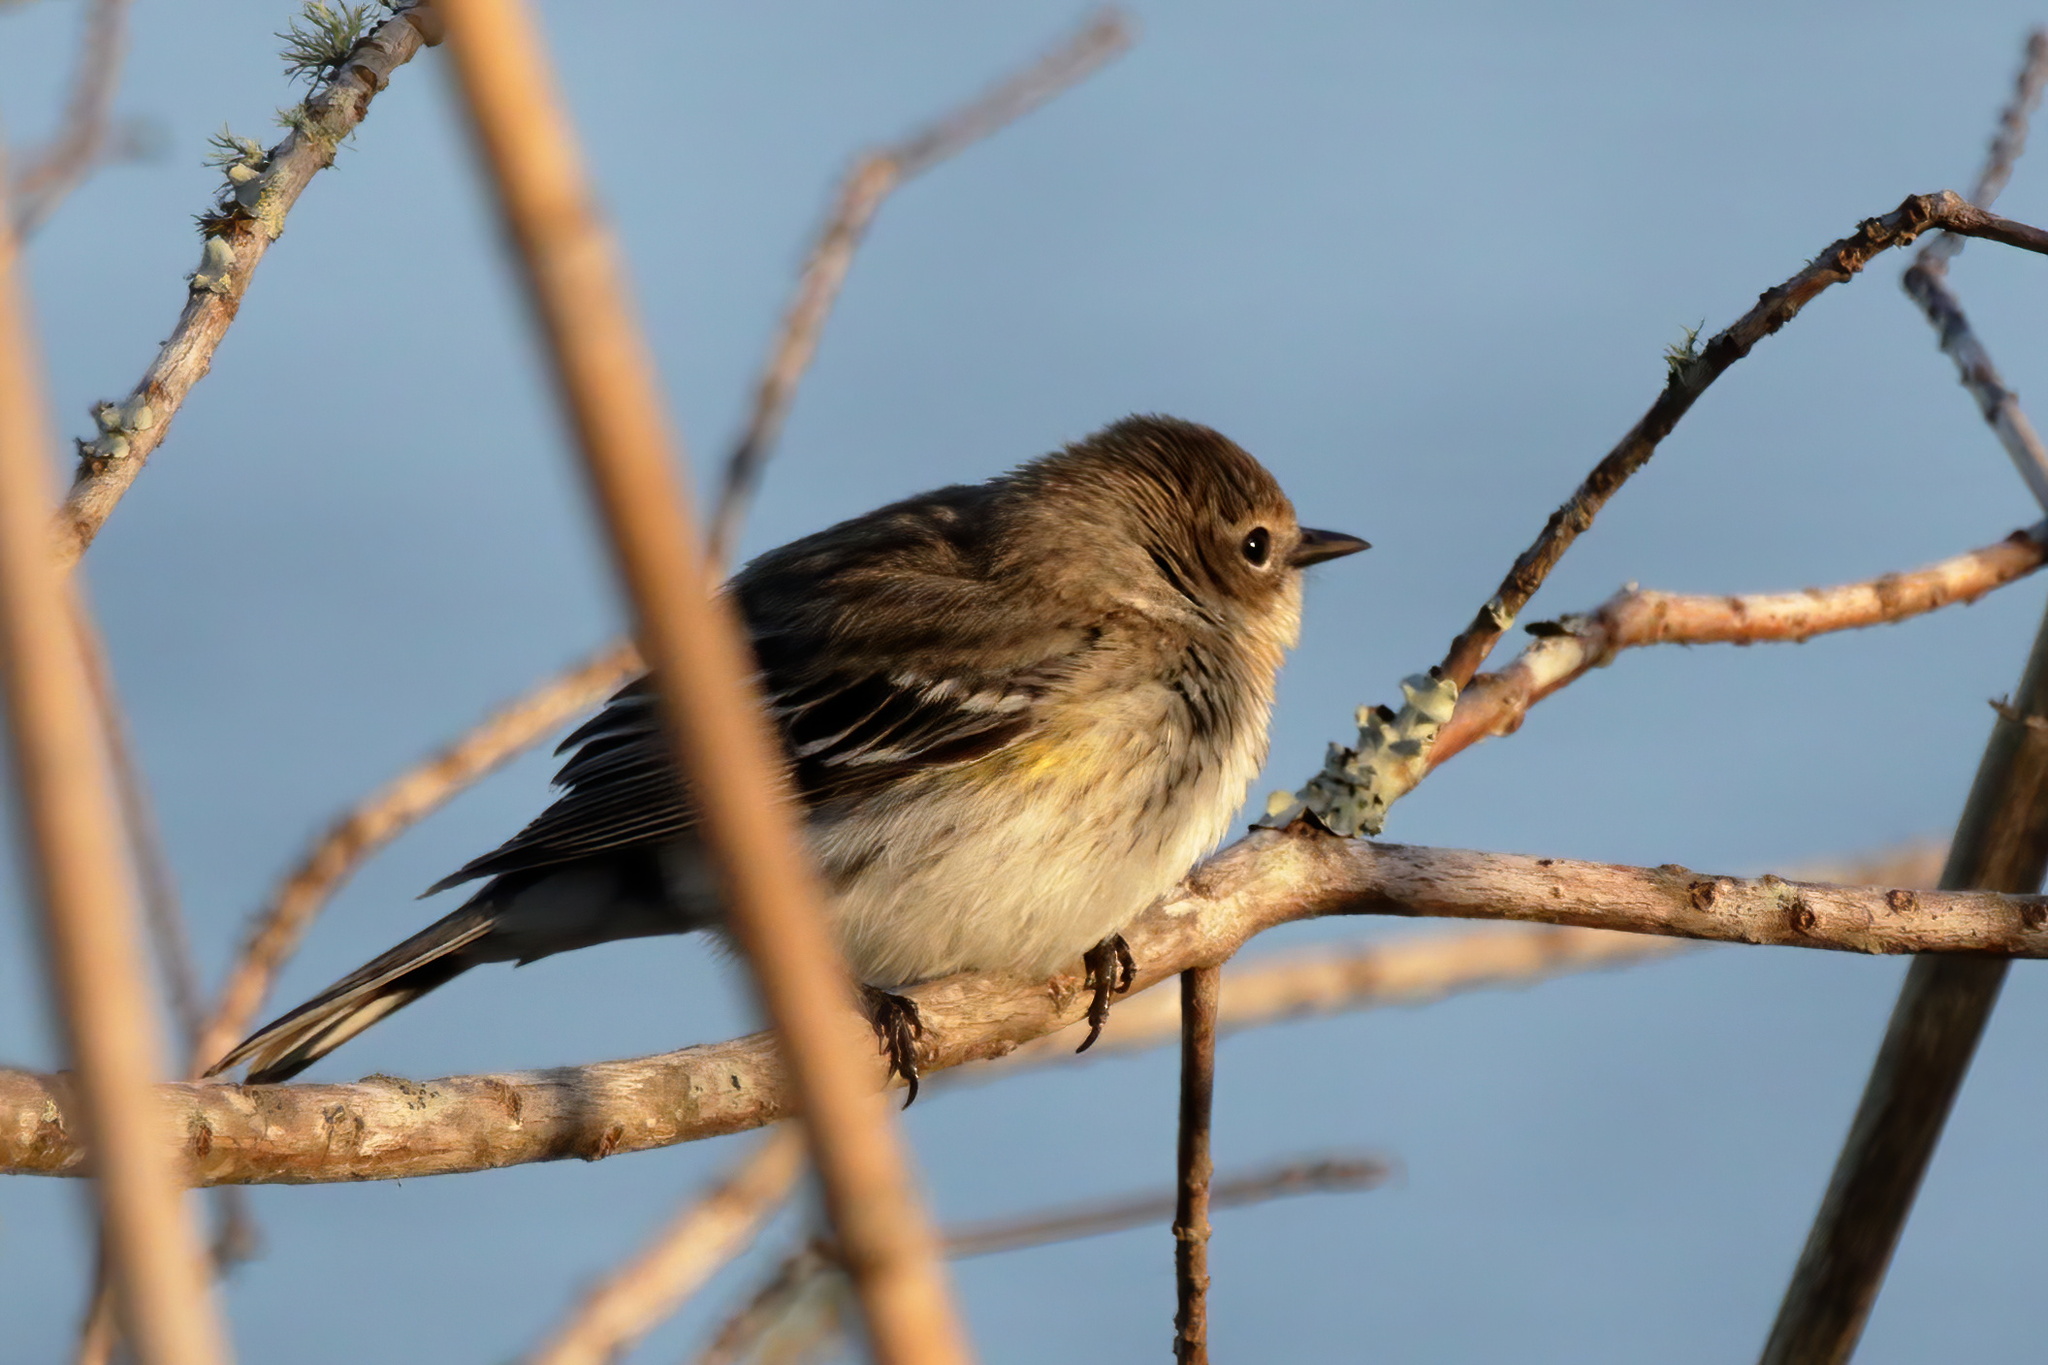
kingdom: Animalia
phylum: Chordata
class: Aves
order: Passeriformes
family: Parulidae
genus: Setophaga
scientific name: Setophaga coronata
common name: Myrtle warbler
